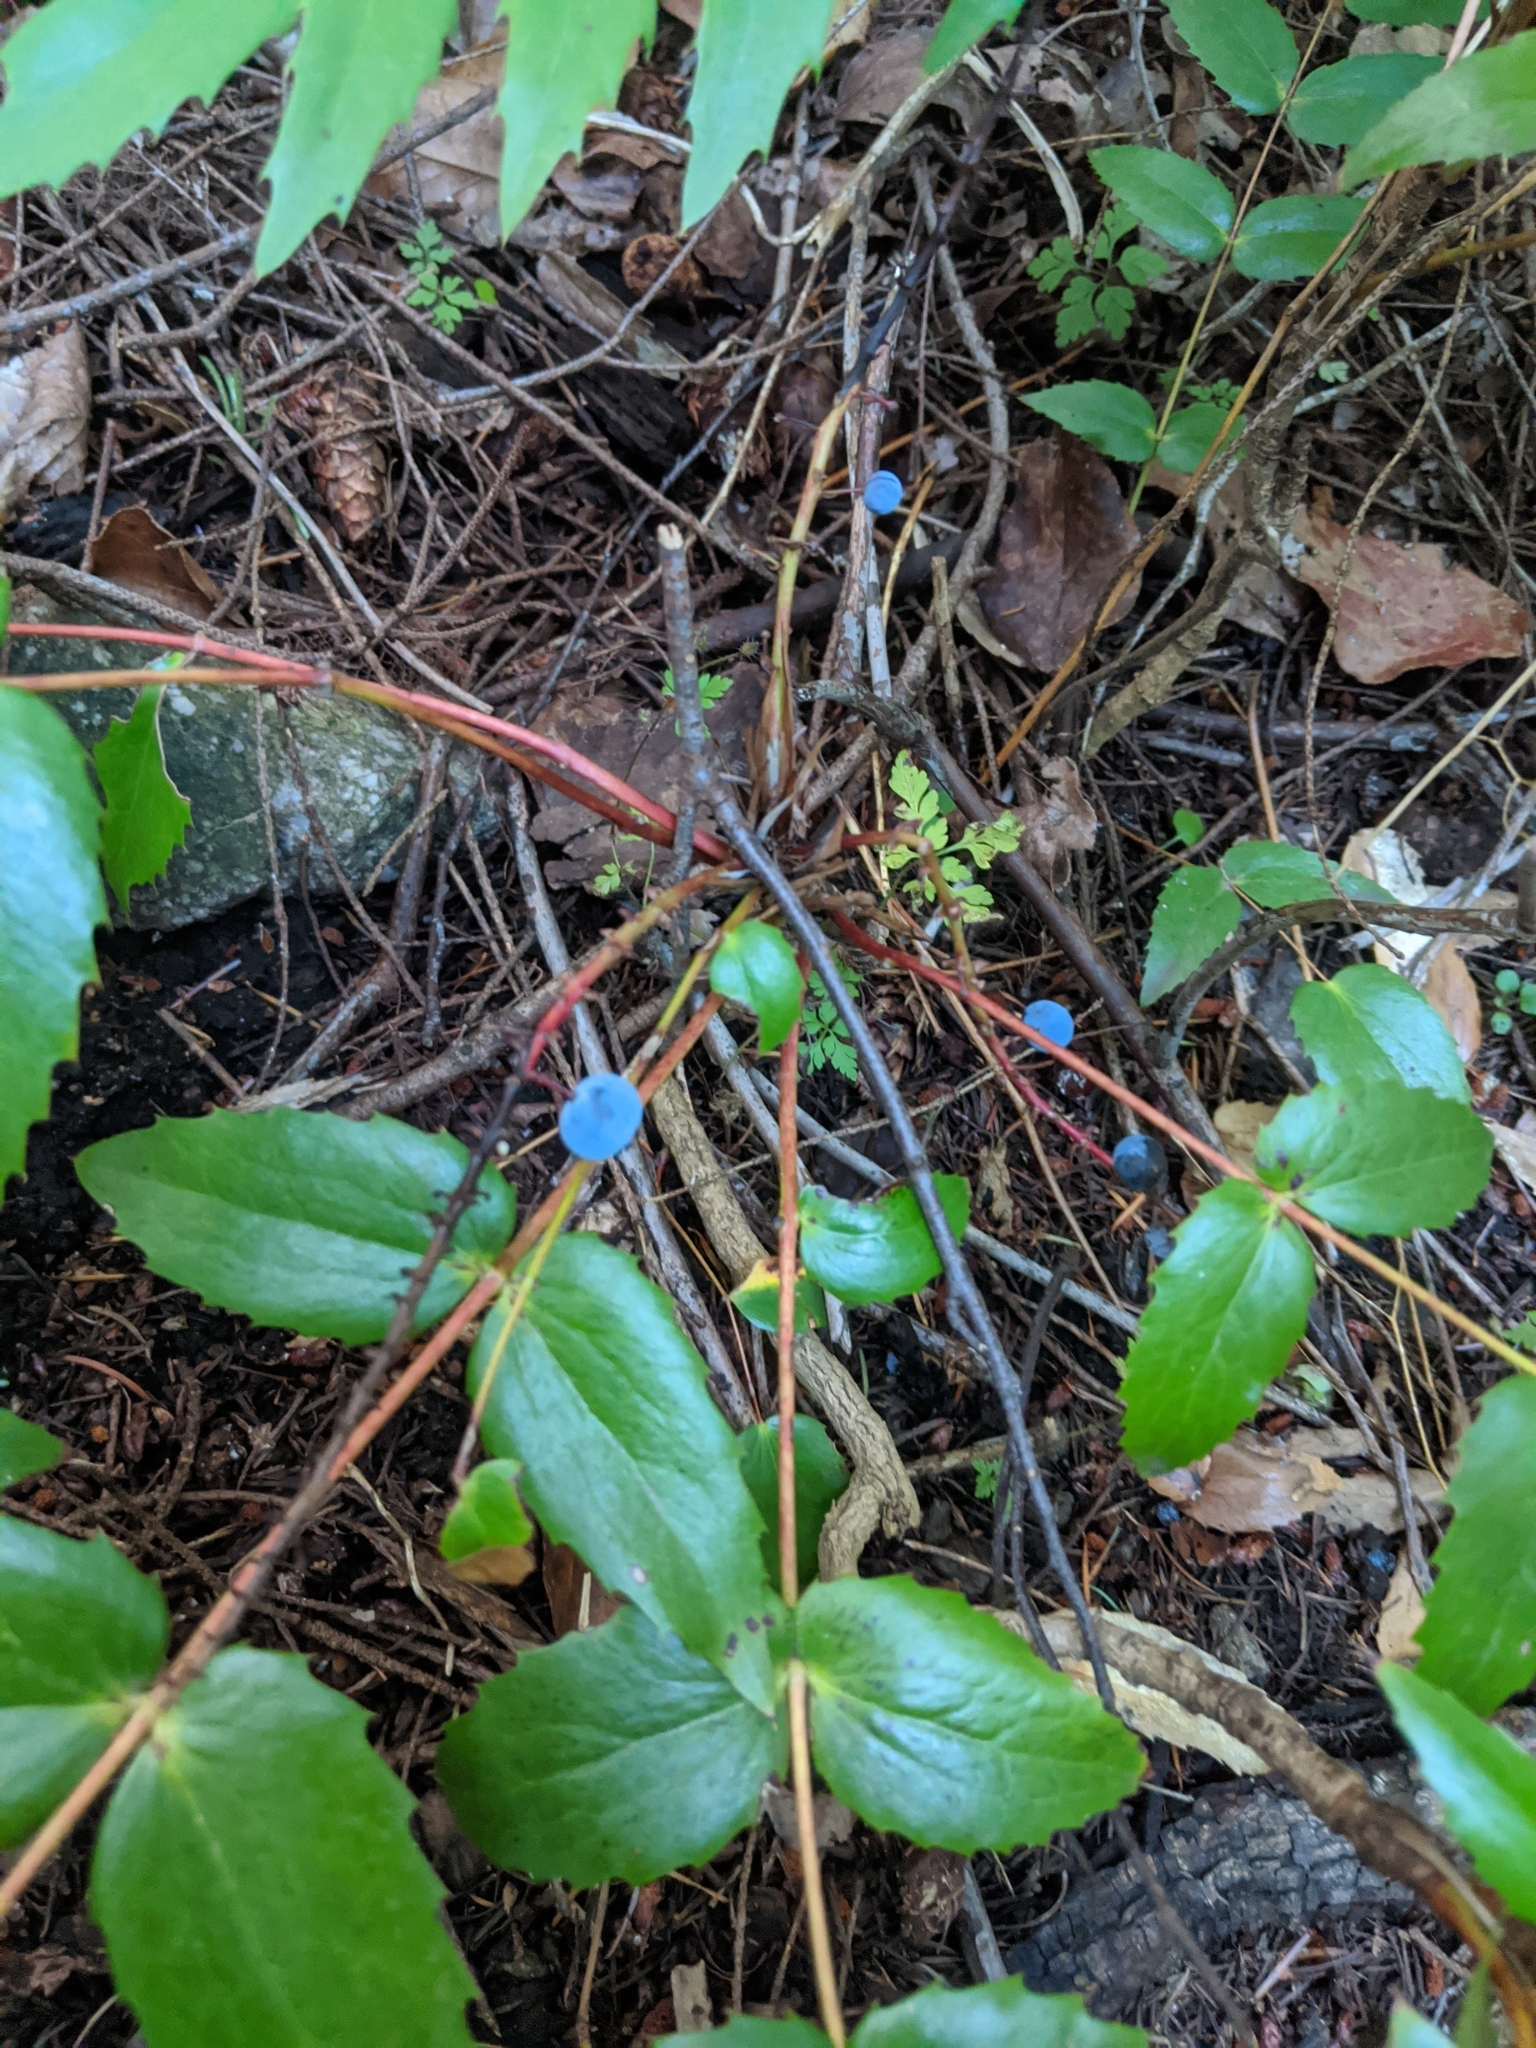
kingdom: Plantae
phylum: Tracheophyta
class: Magnoliopsida
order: Ranunculales
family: Berberidaceae
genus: Mahonia
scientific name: Mahonia nervosa
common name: Cascade oregon-grape
